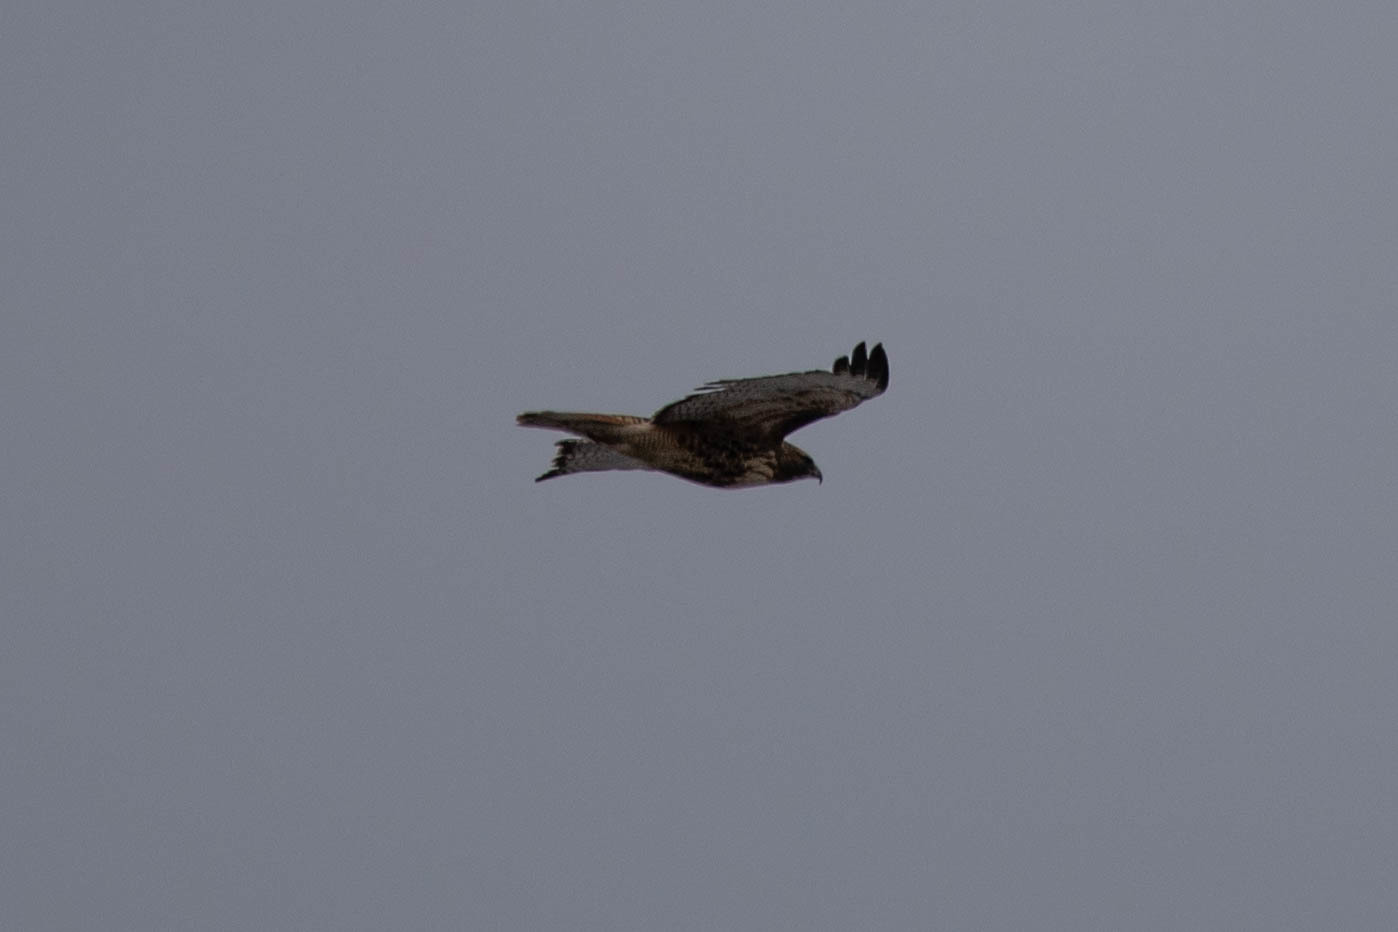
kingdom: Animalia
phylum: Chordata
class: Aves
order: Accipitriformes
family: Accipitridae
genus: Buteo
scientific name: Buteo jamaicensis
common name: Red-tailed hawk
